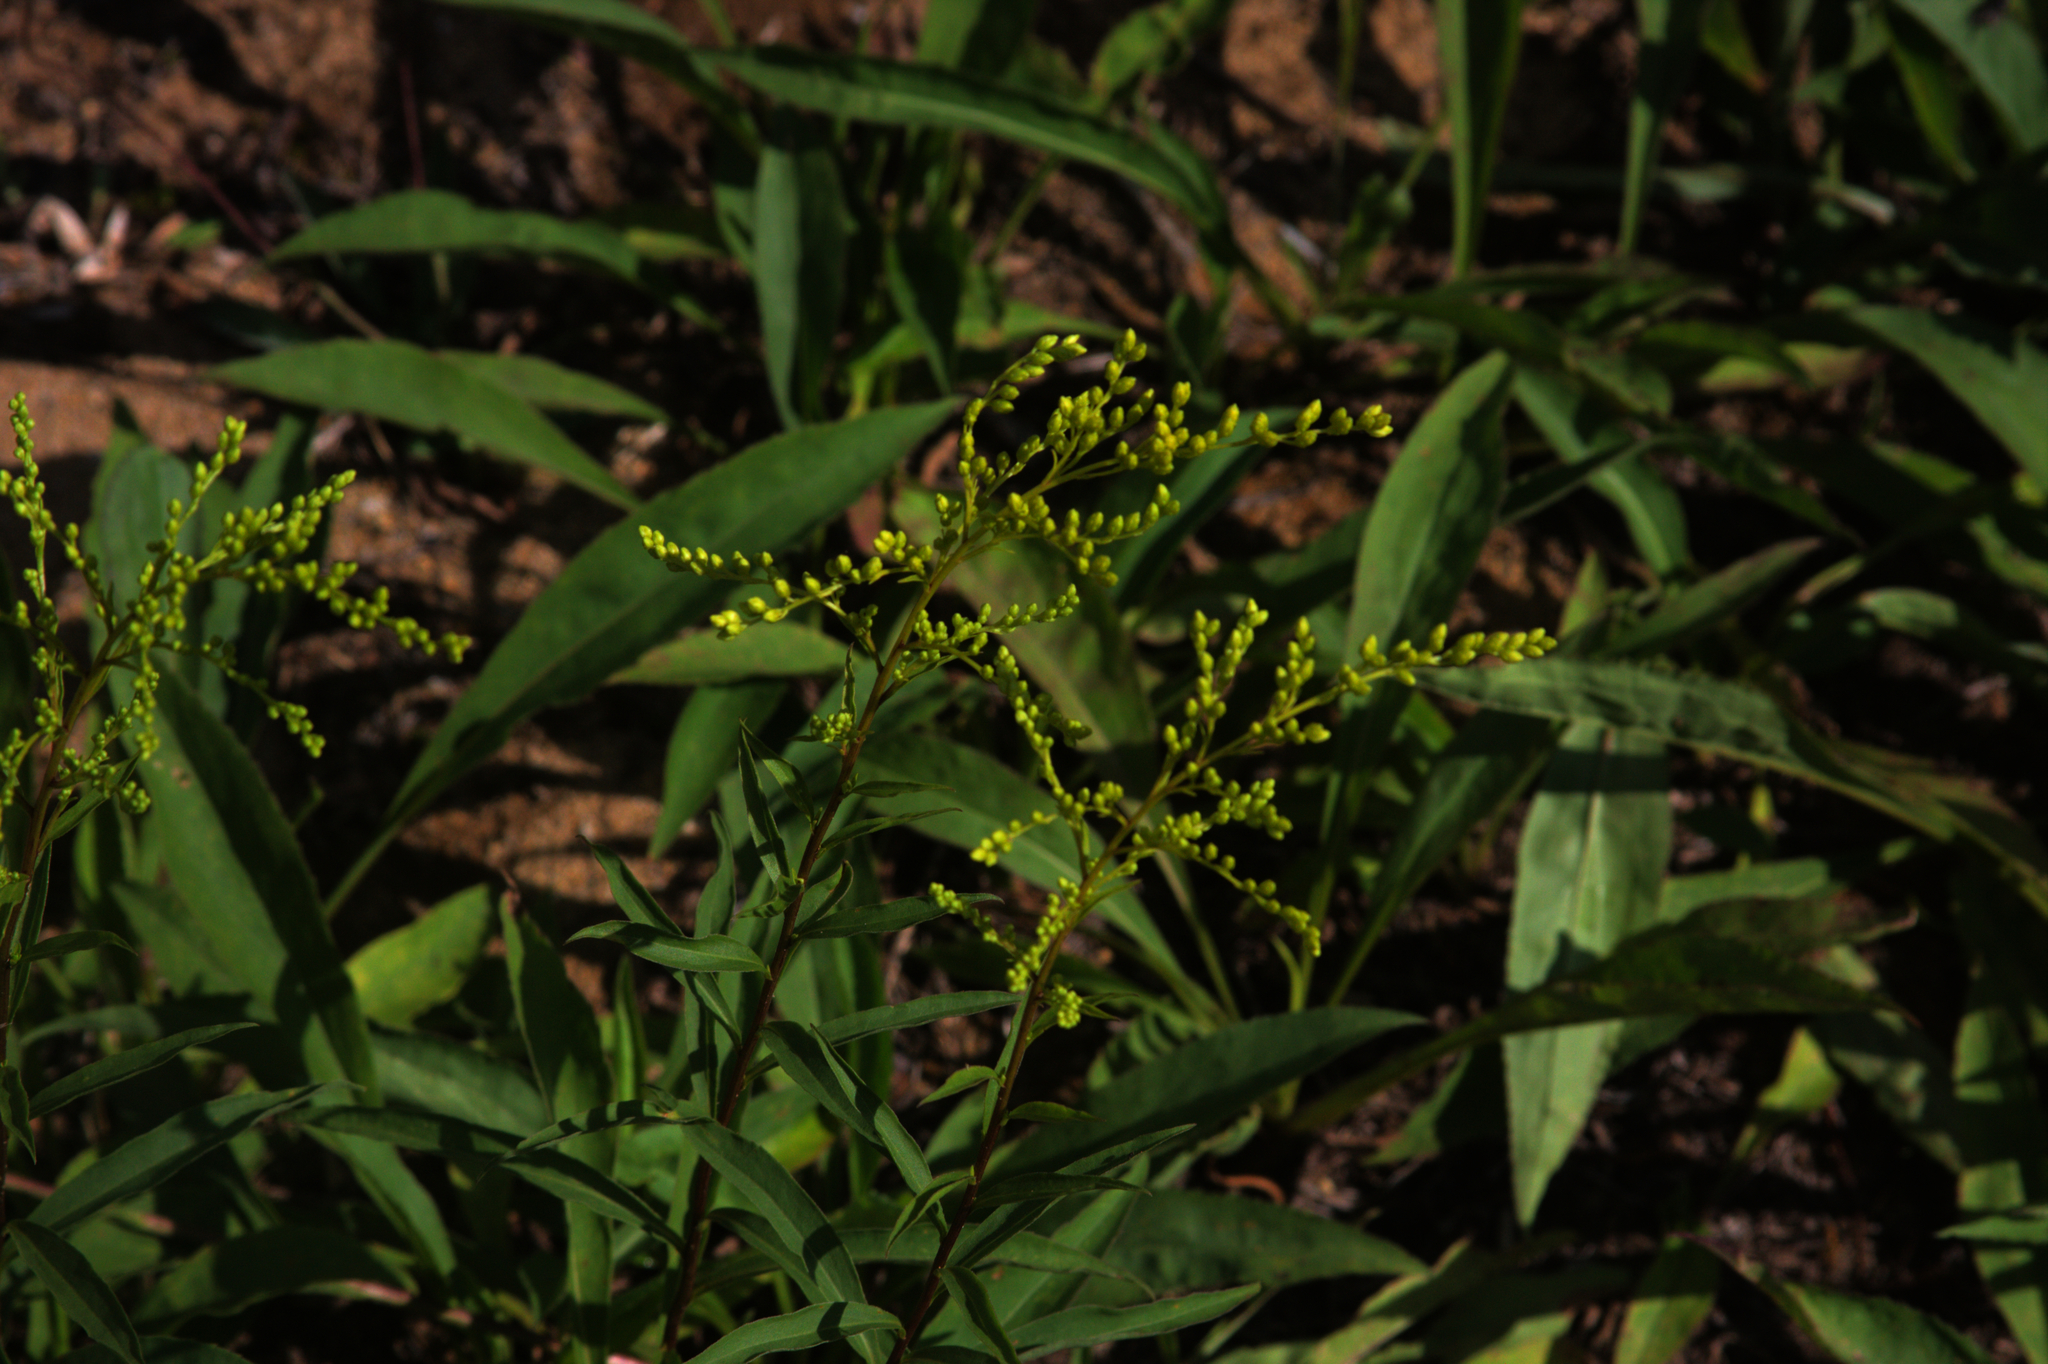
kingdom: Plantae
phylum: Tracheophyta
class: Magnoliopsida
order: Asterales
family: Asteraceae
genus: Solidago
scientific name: Solidago juncea
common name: Early goldenrod
